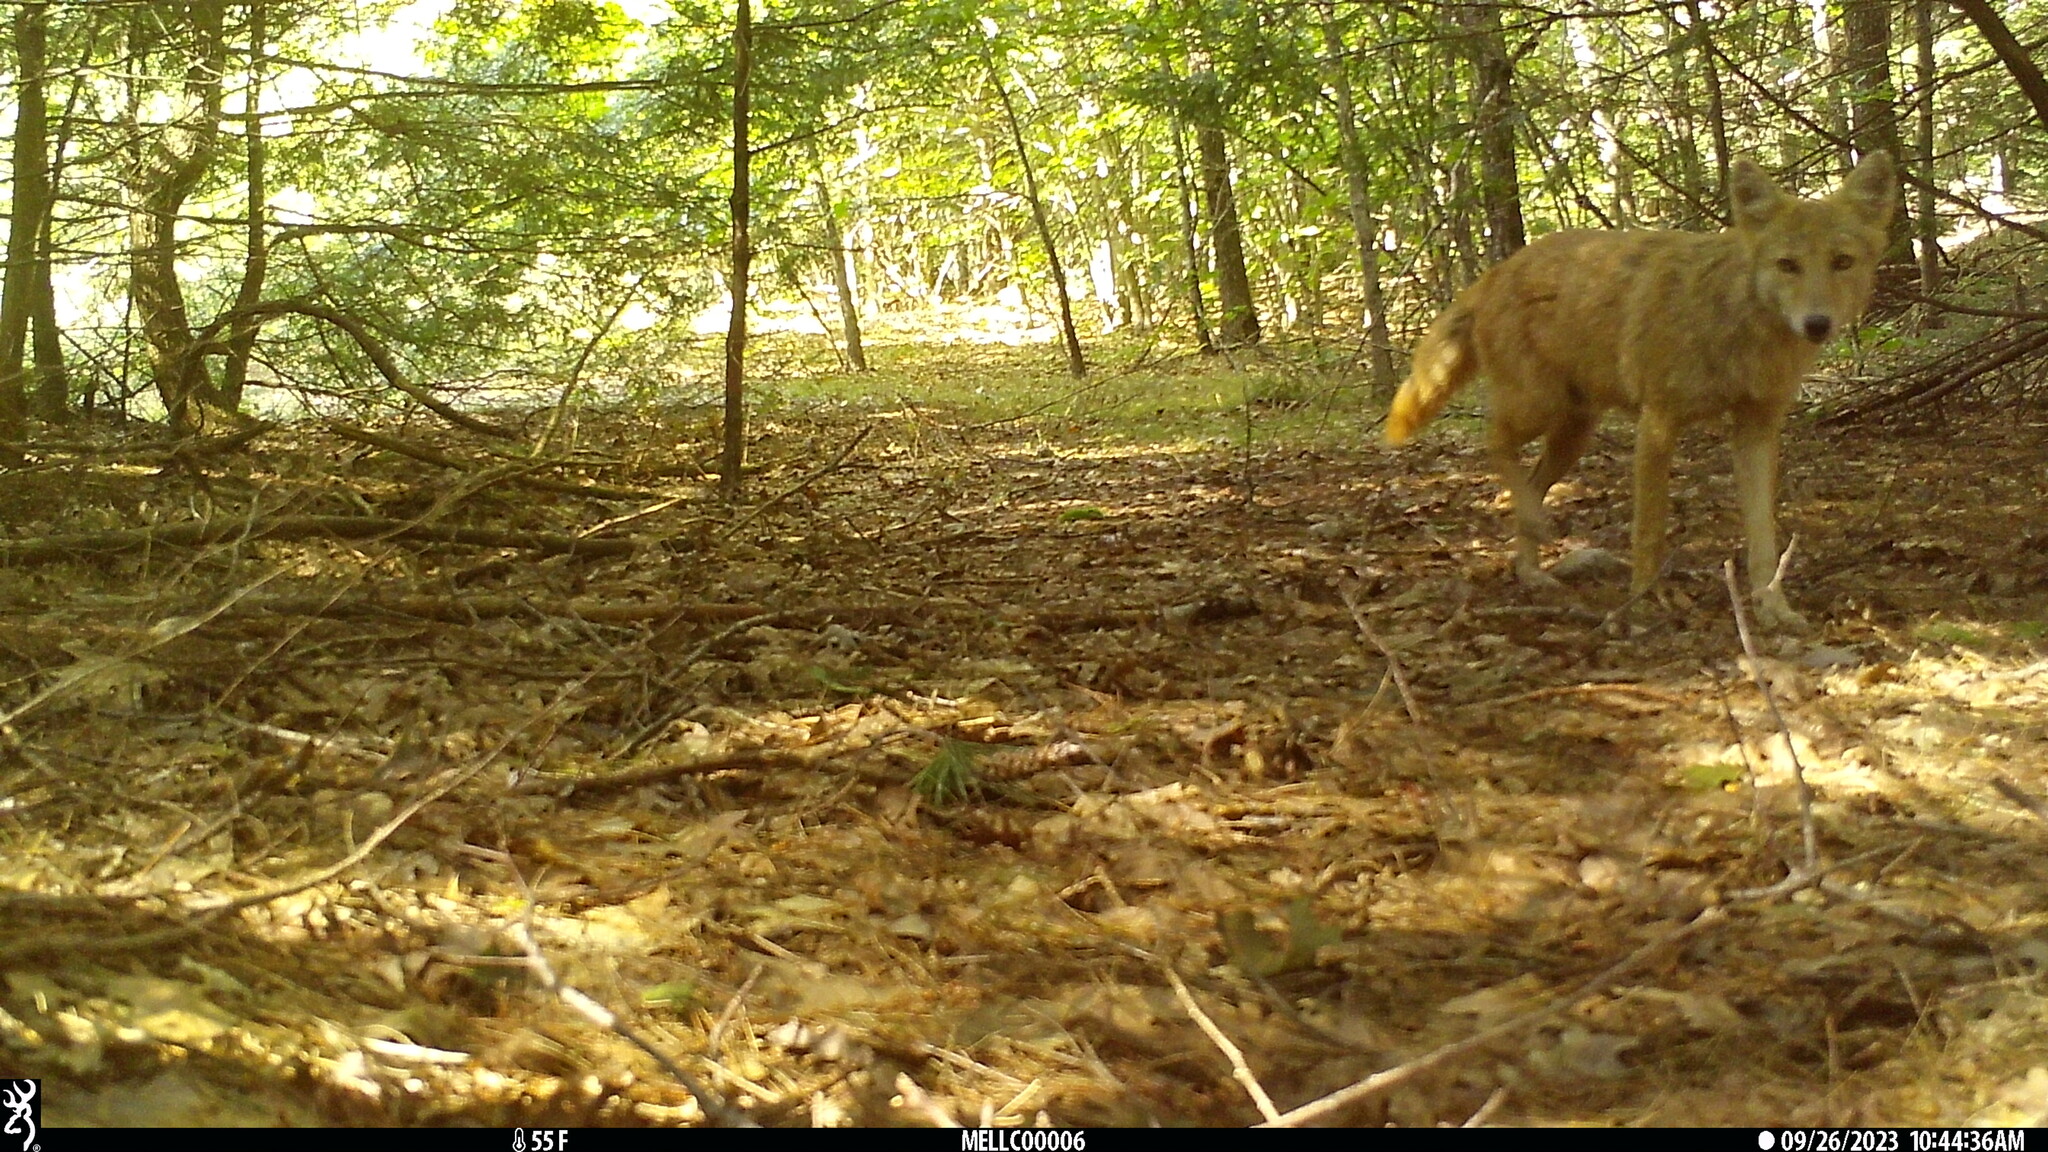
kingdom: Animalia
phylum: Chordata
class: Mammalia
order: Carnivora
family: Canidae
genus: Canis
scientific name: Canis latrans
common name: Coyote
